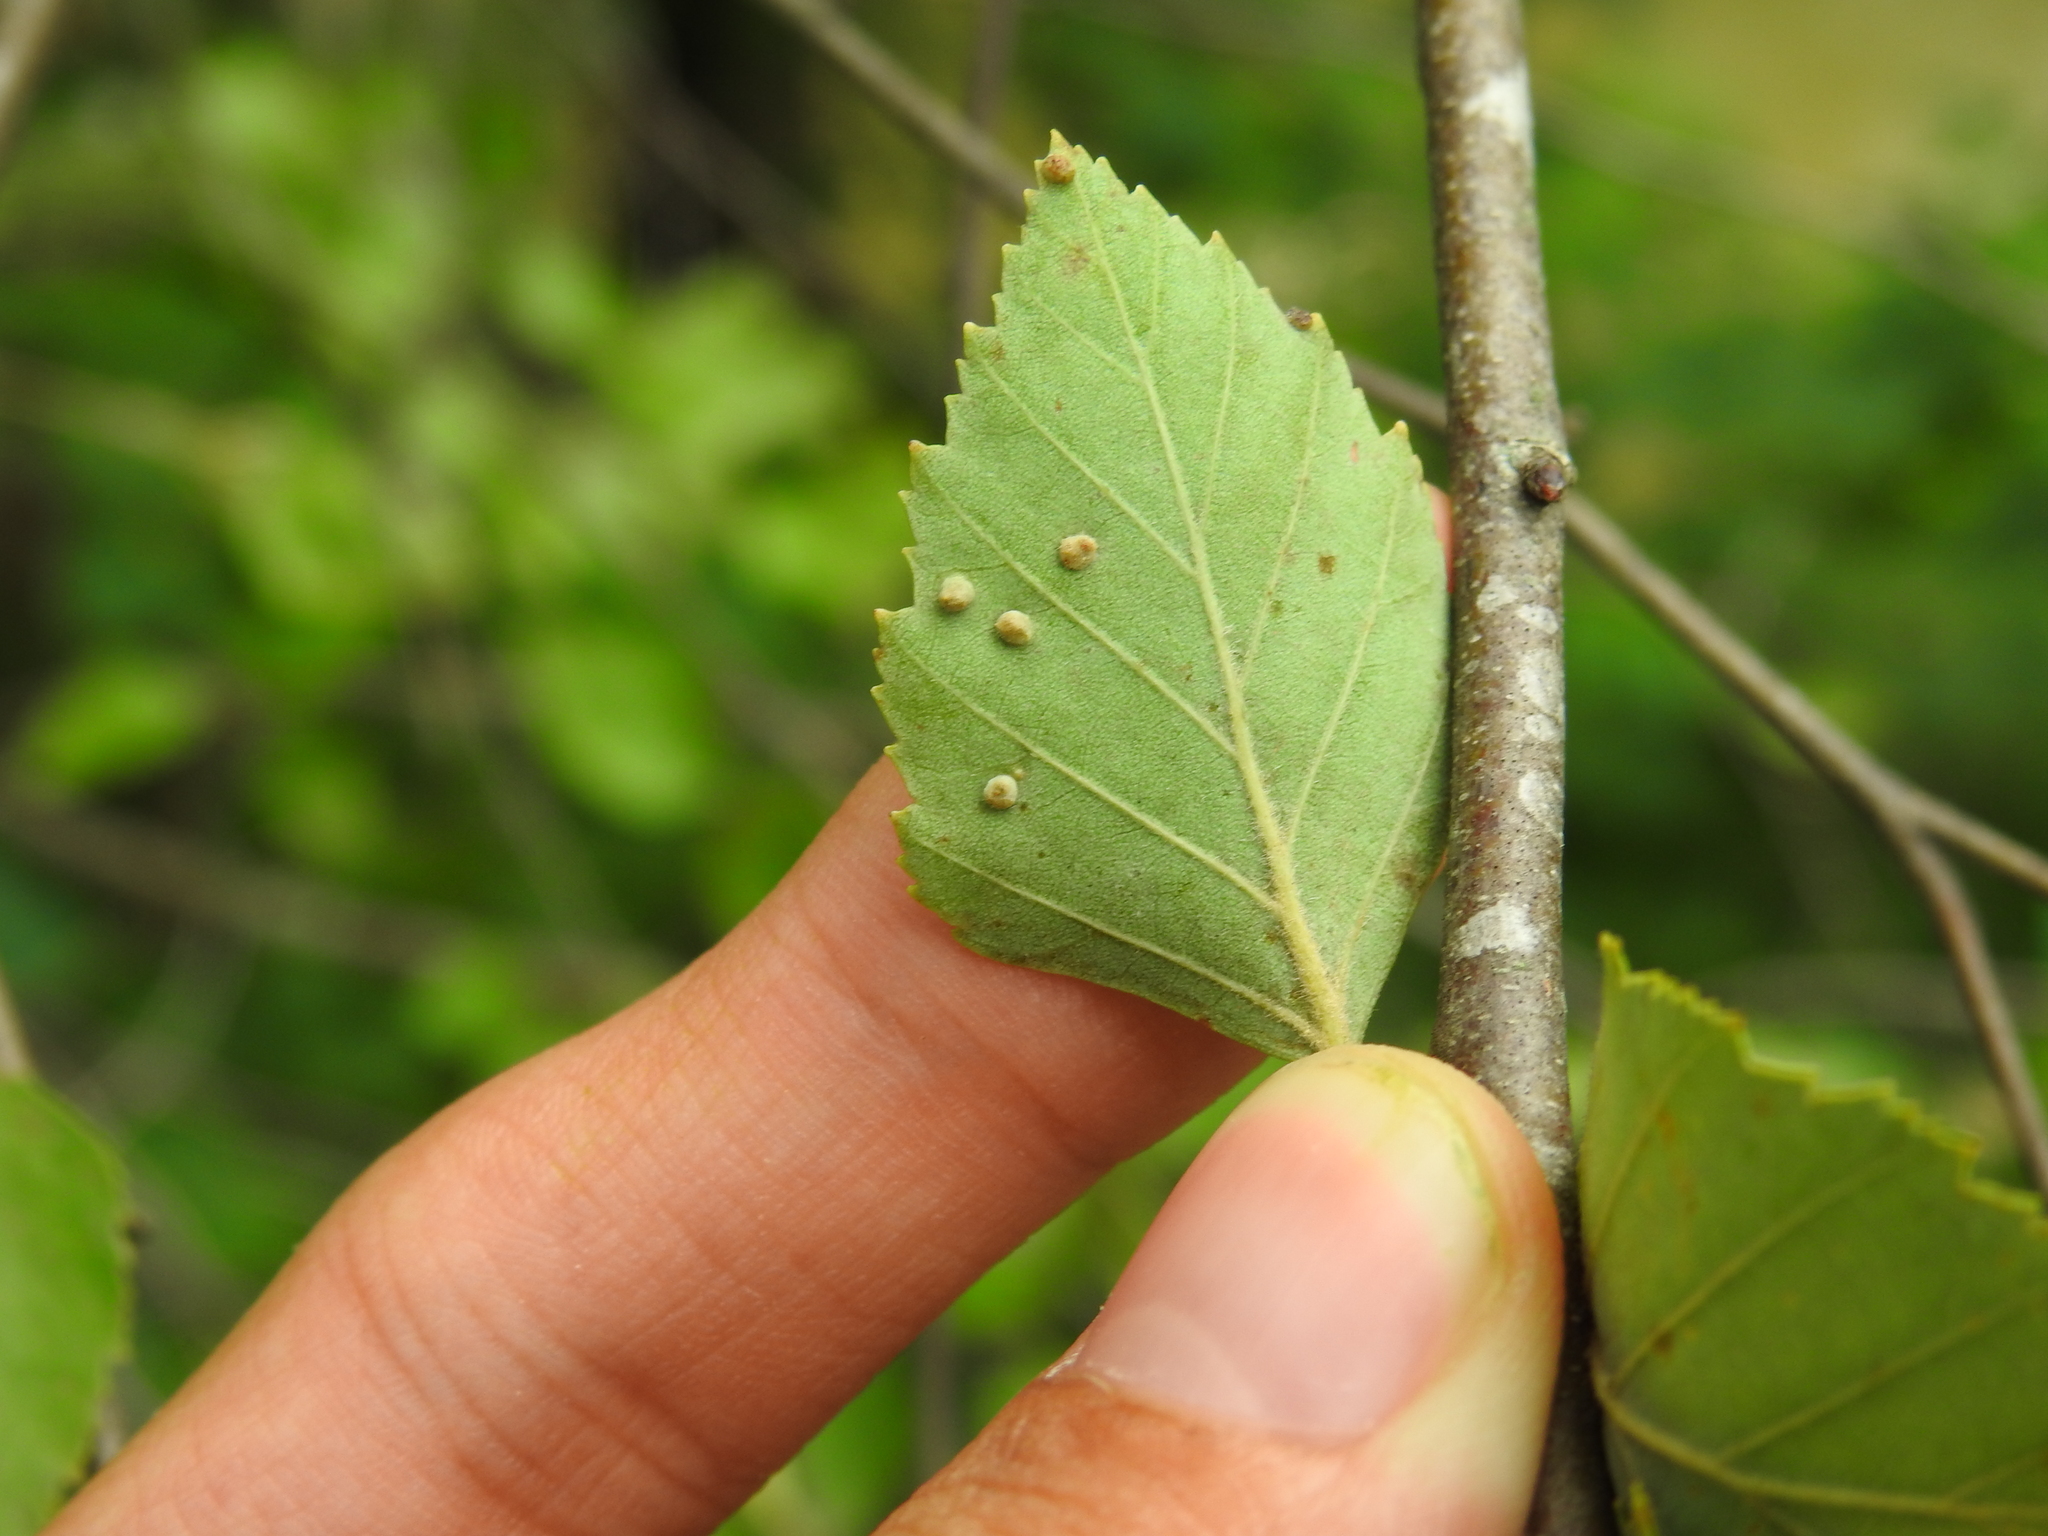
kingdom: Animalia
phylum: Arthropoda
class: Arachnida
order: Trombidiformes
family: Eriophyidae
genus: Eriophyes
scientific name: Eriophyes laevis
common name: Alder leaf gall mite
